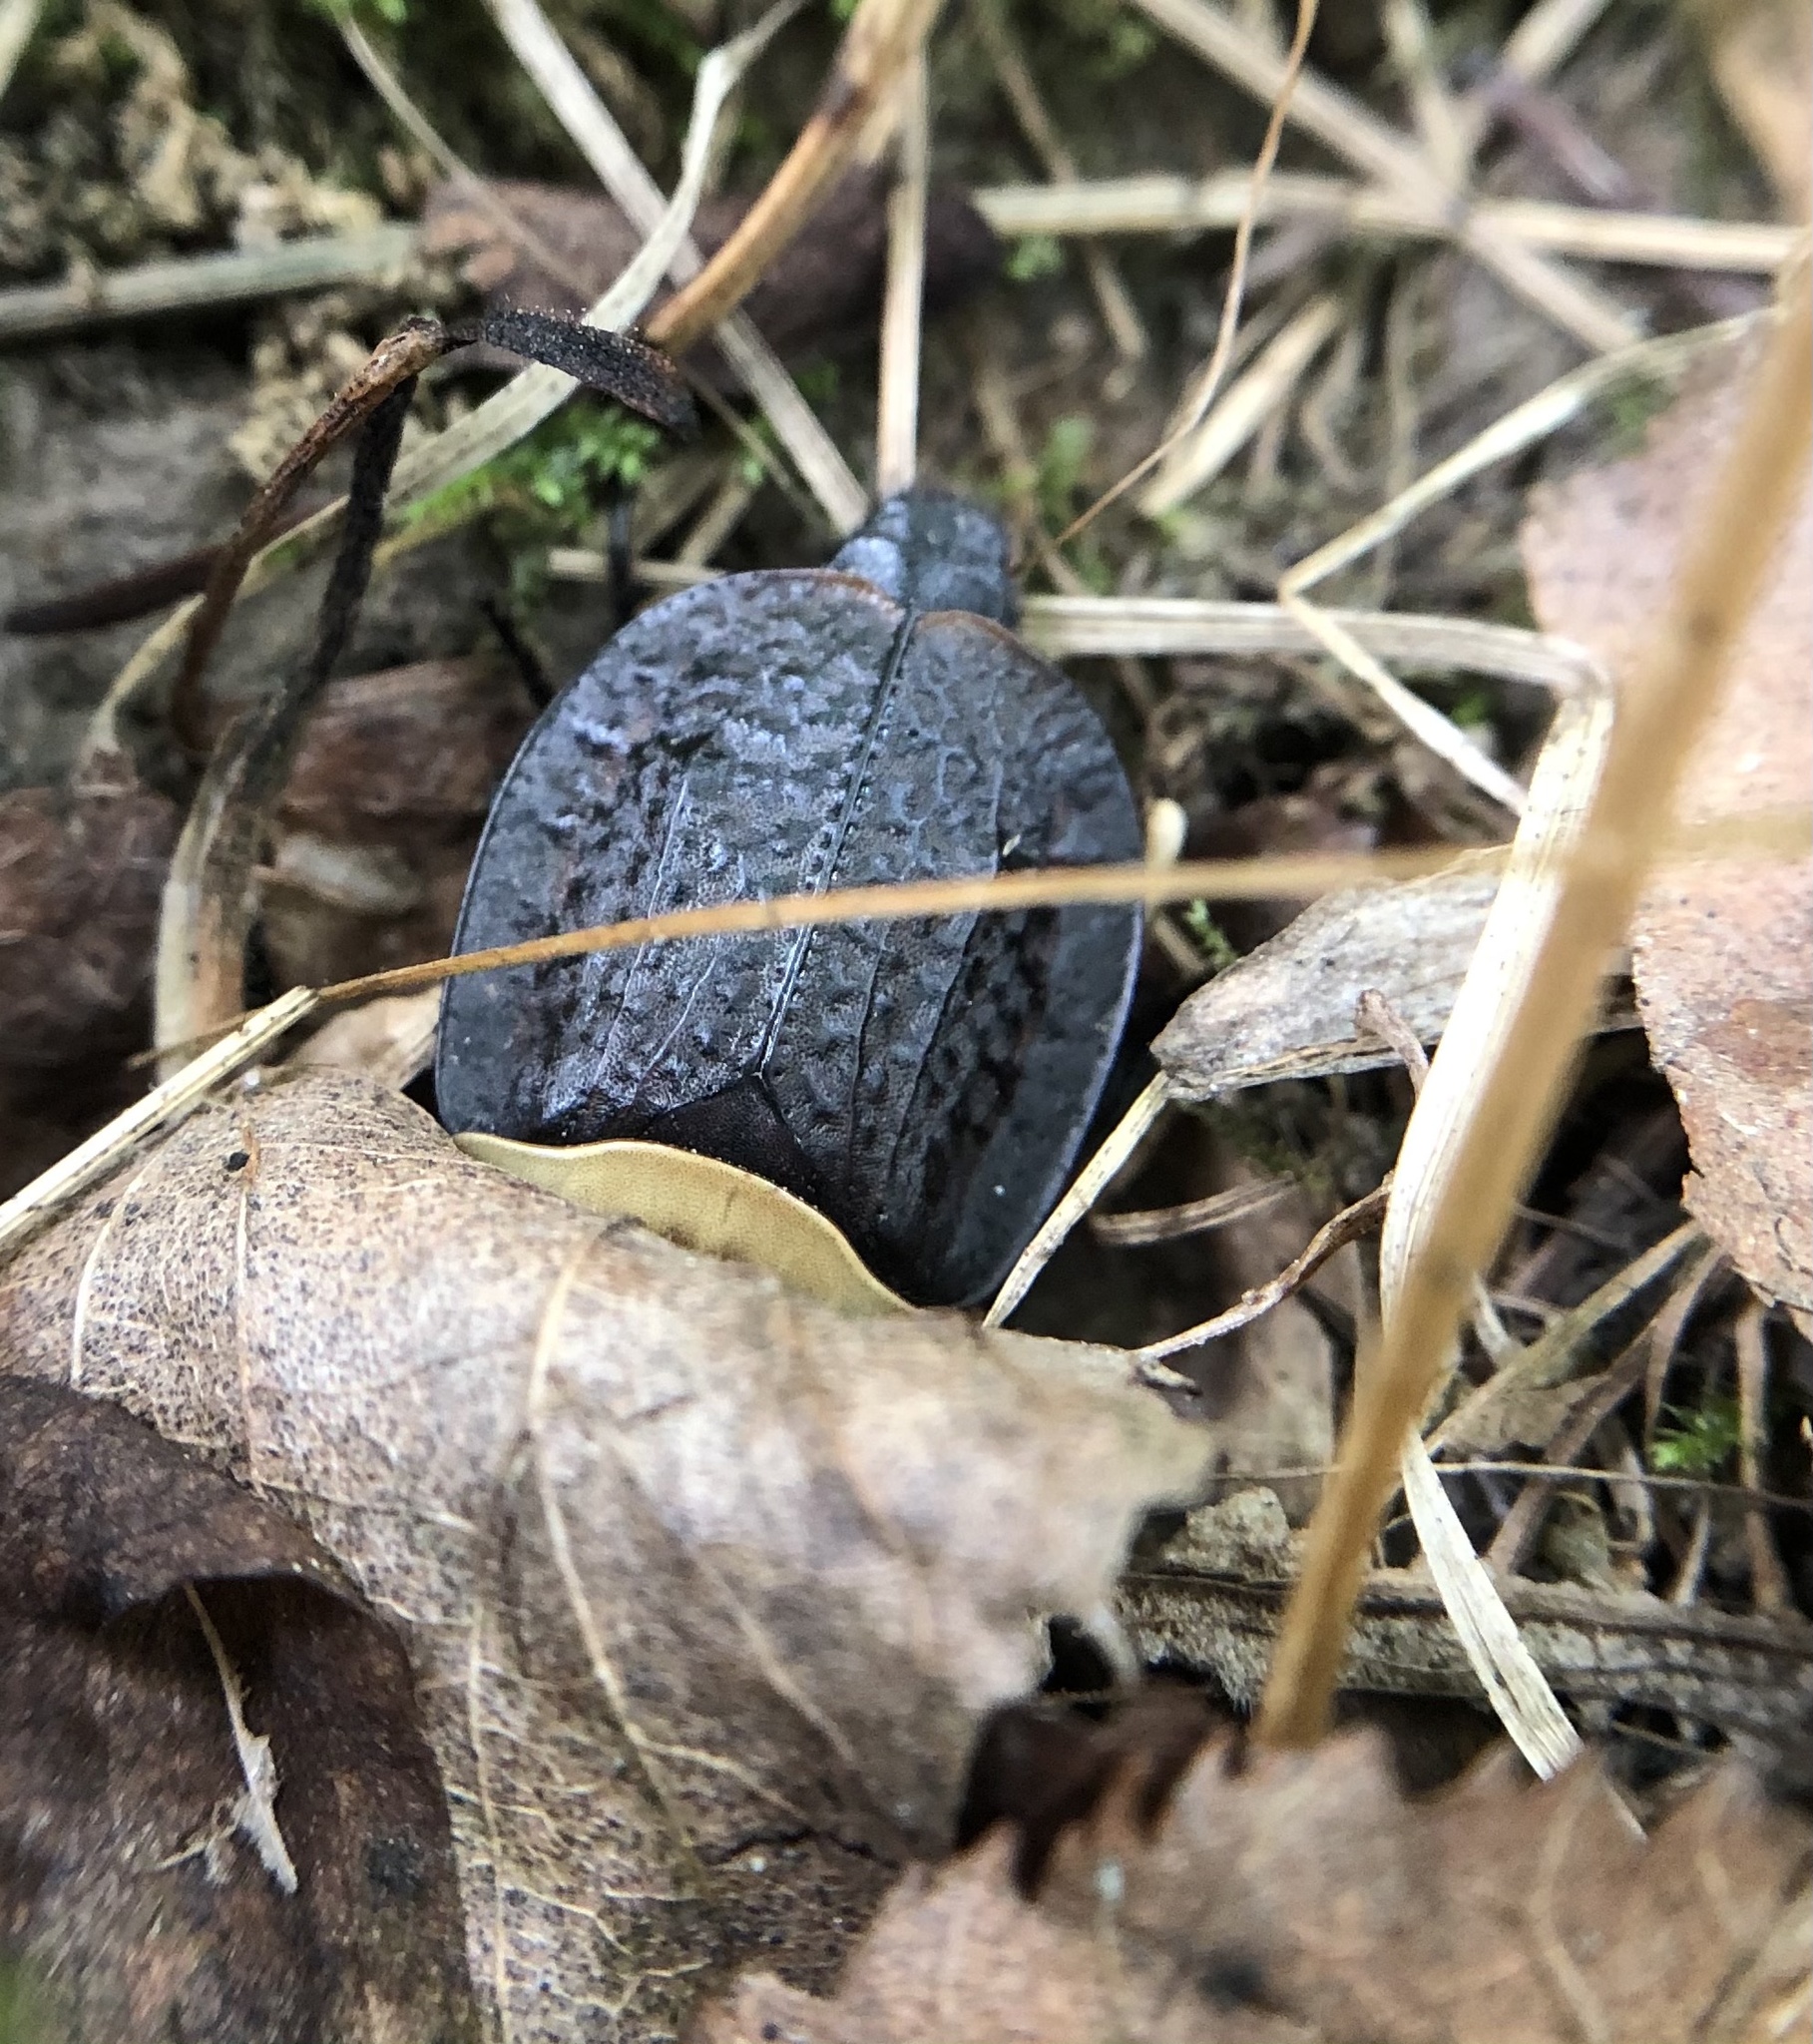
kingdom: Animalia
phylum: Arthropoda
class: Insecta
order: Coleoptera
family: Staphylinidae
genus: Necrophila
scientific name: Necrophila americana
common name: American carrion beetle
